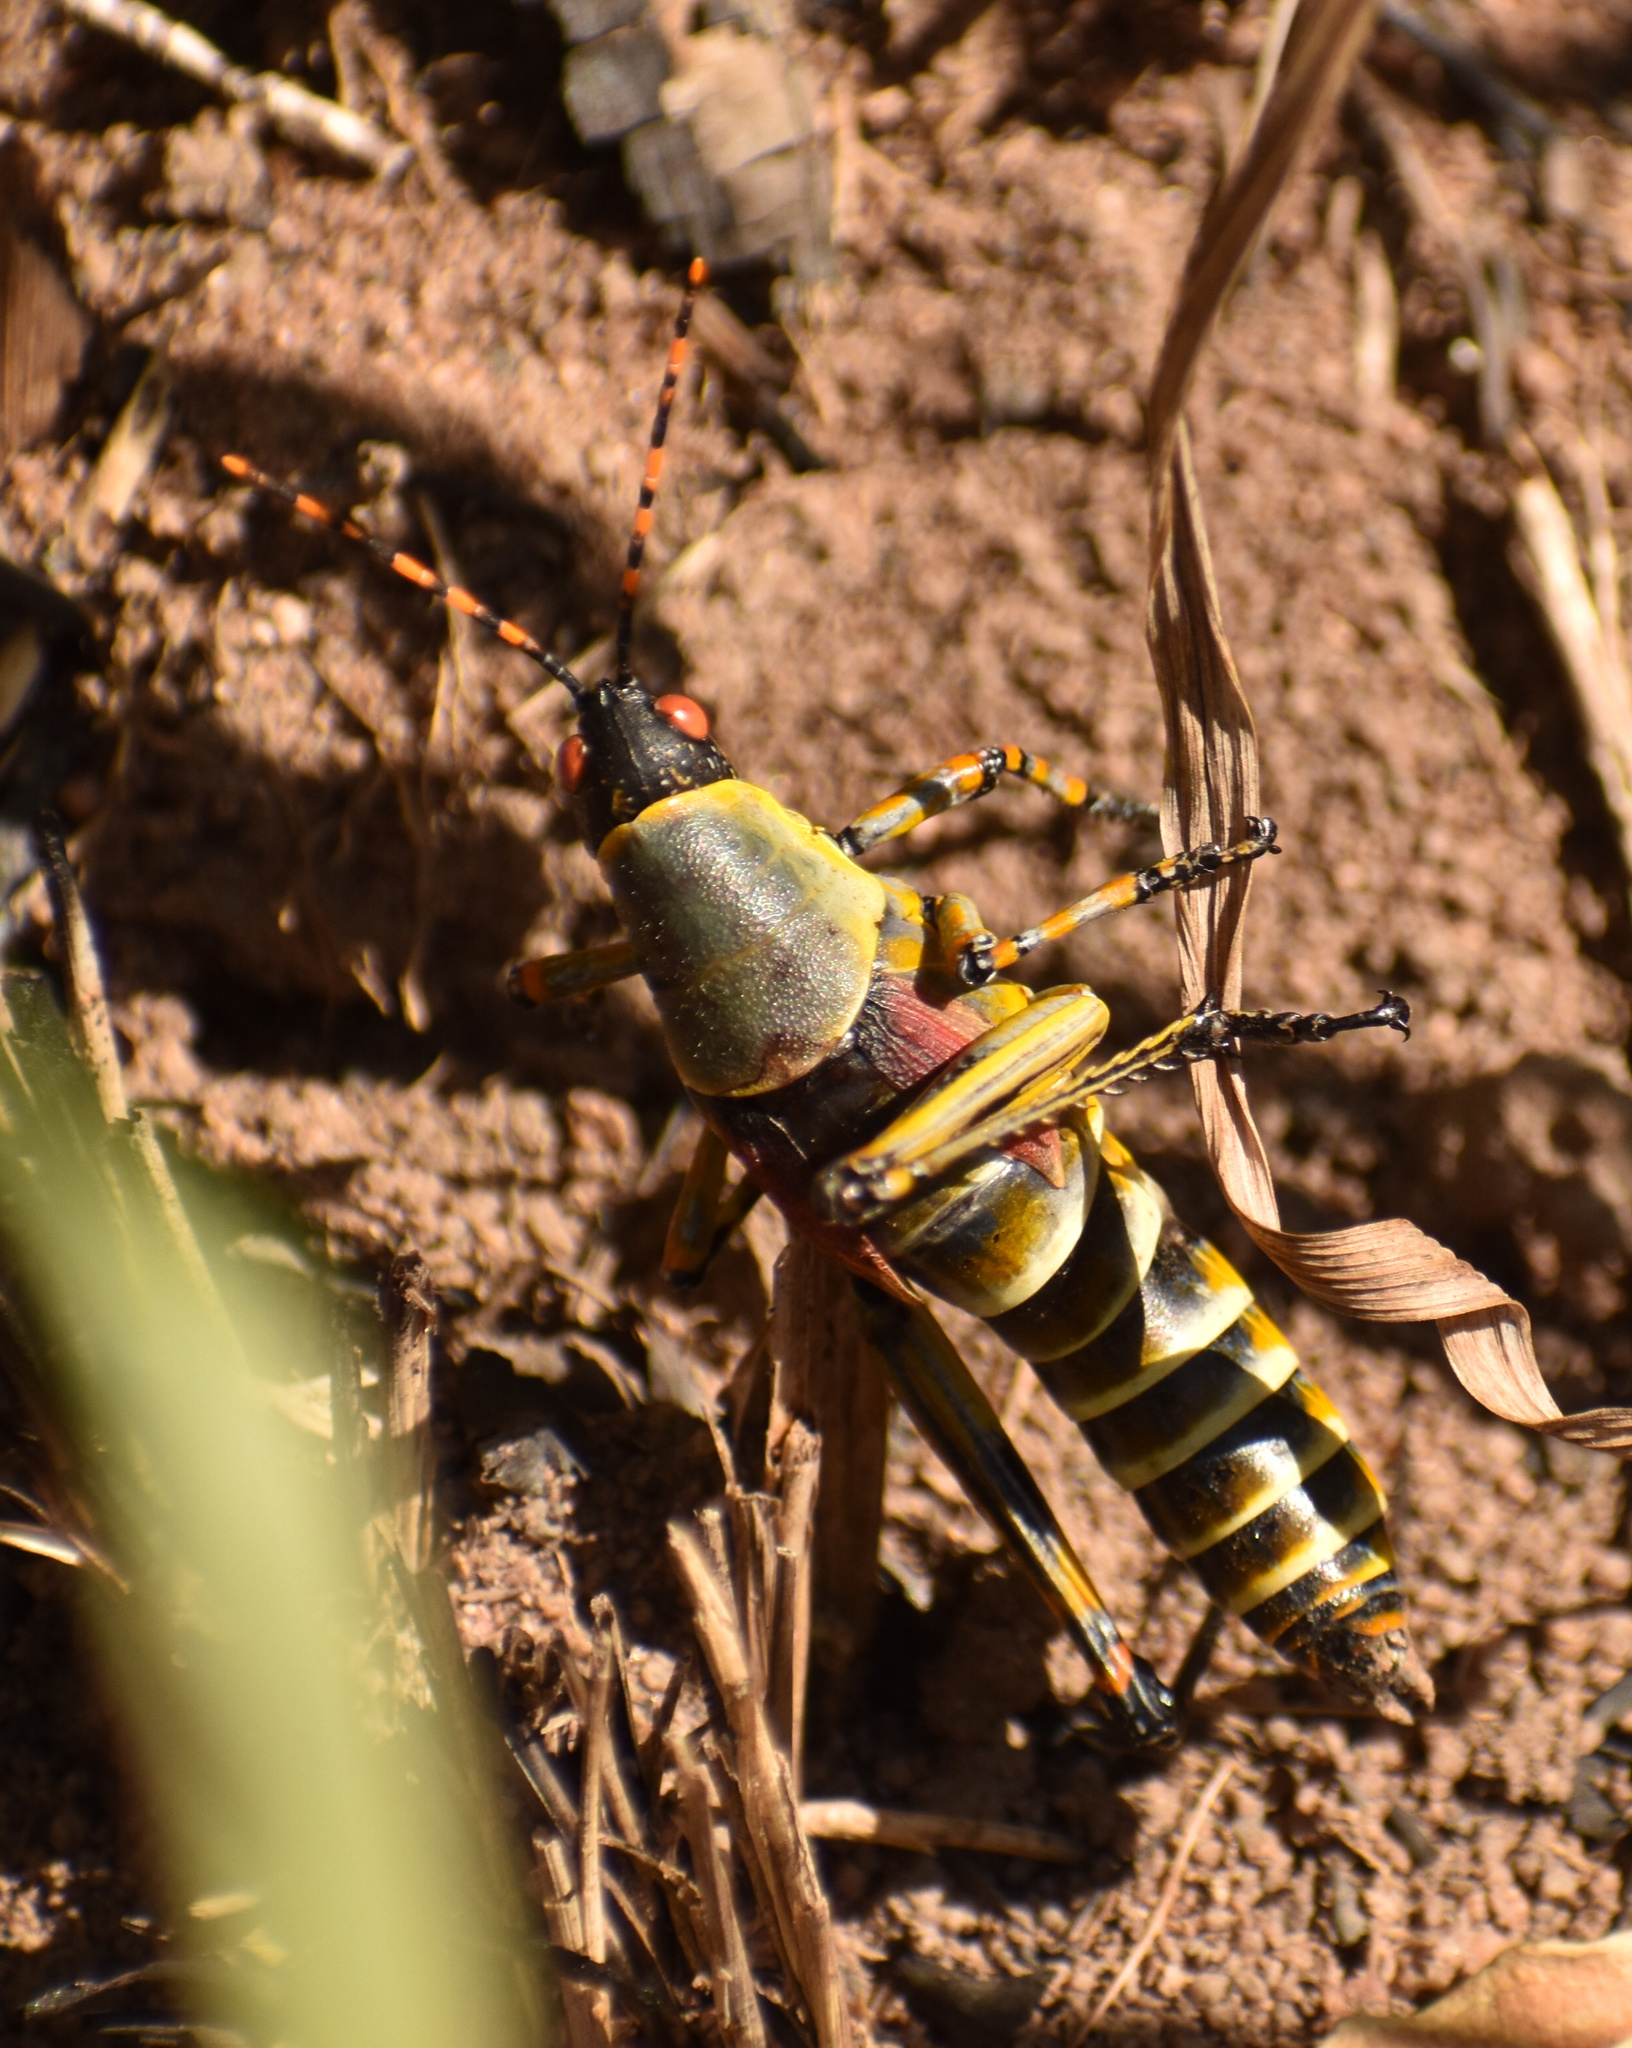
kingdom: Animalia
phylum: Arthropoda
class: Insecta
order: Orthoptera
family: Pyrgomorphidae
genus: Zonocerus
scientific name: Zonocerus elegans
